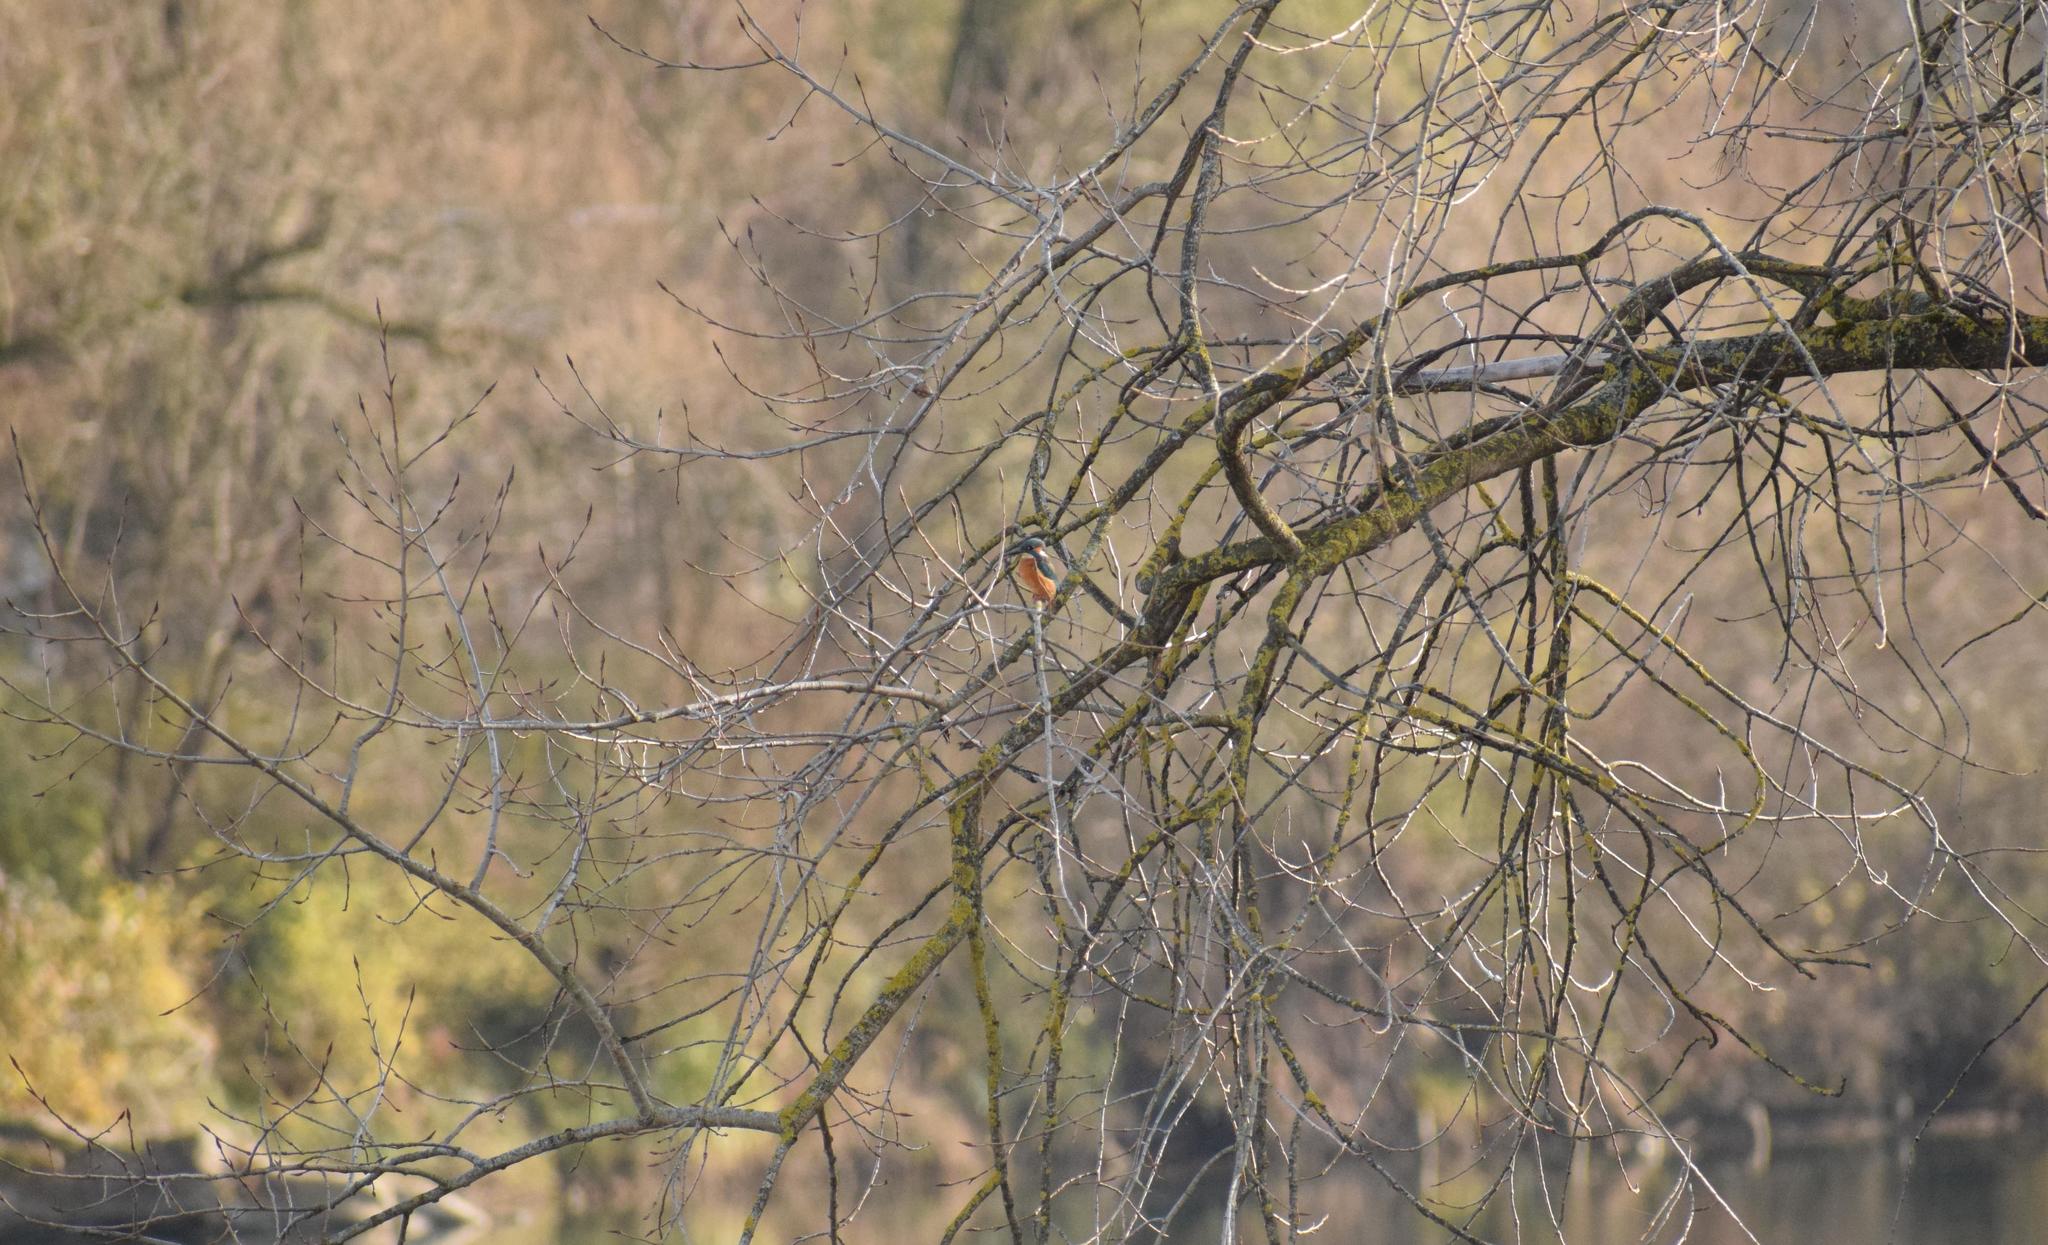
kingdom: Animalia
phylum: Chordata
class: Aves
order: Coraciiformes
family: Alcedinidae
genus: Alcedo
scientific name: Alcedo atthis
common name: Common kingfisher
